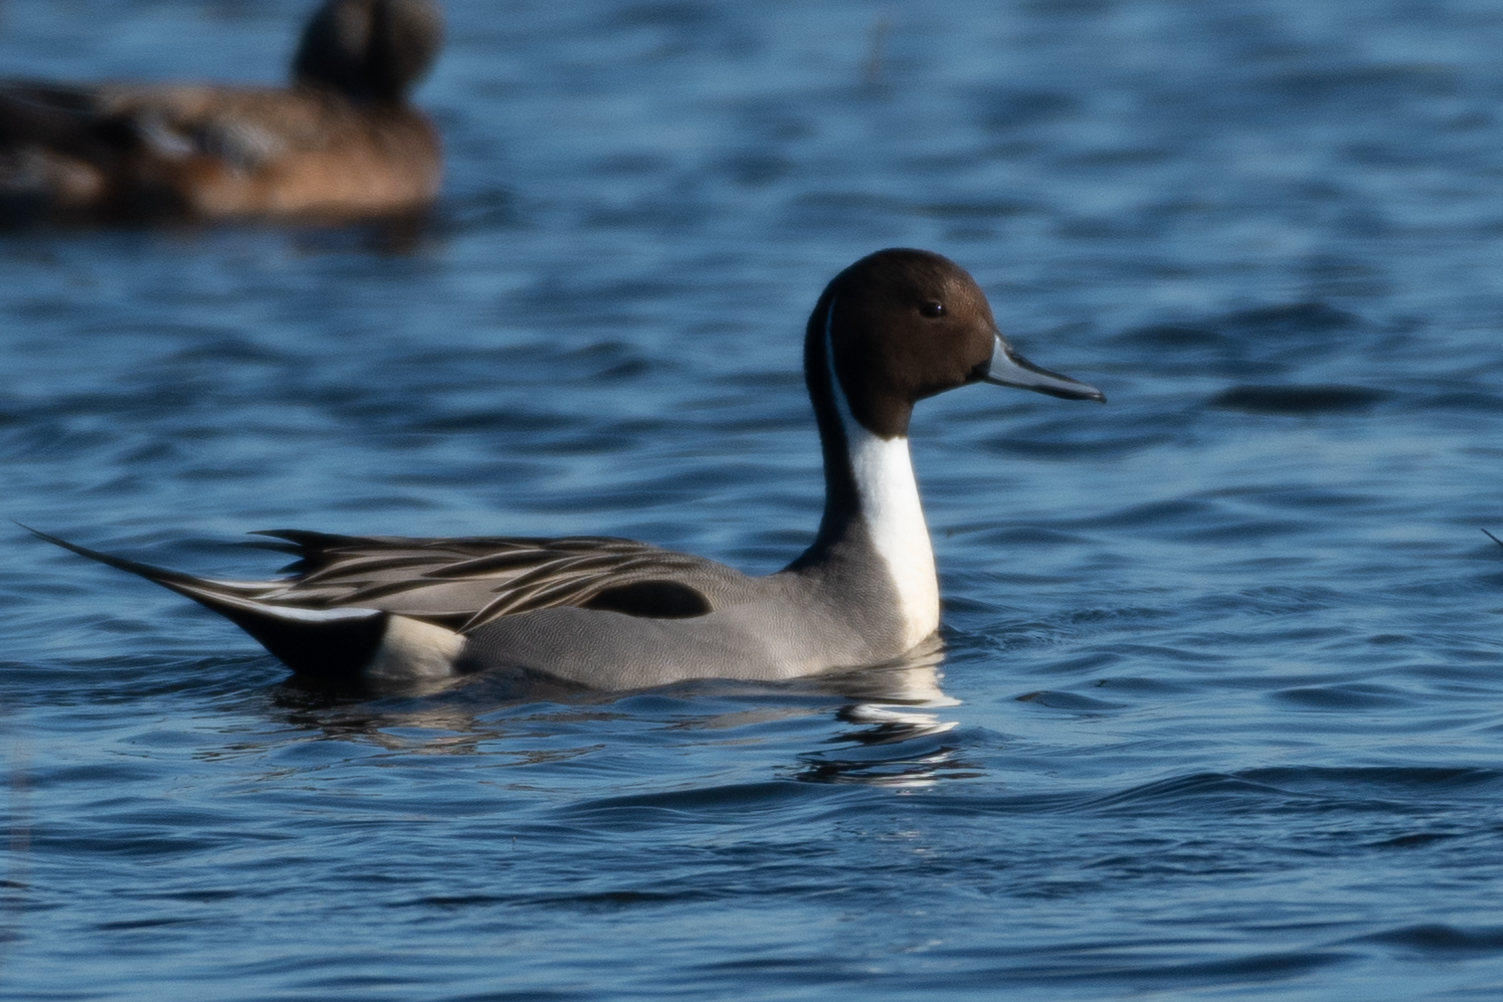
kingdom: Animalia
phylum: Chordata
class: Aves
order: Anseriformes
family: Anatidae
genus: Anas
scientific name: Anas acuta
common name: Northern pintail
